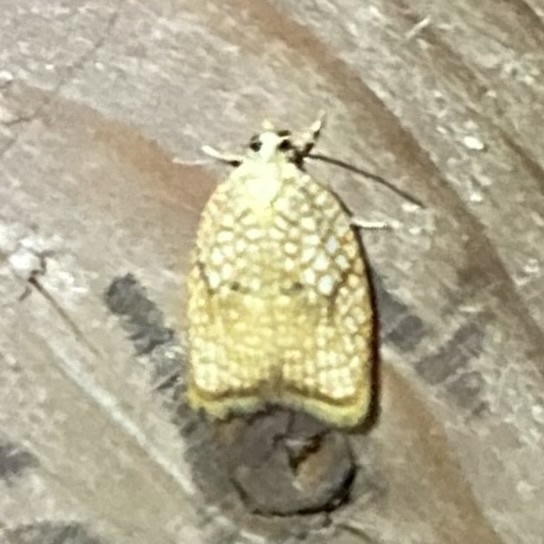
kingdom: Animalia
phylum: Arthropoda
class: Insecta
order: Lepidoptera
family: Tortricidae
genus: Acleris
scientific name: Acleris forsskaleana
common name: Maple button
